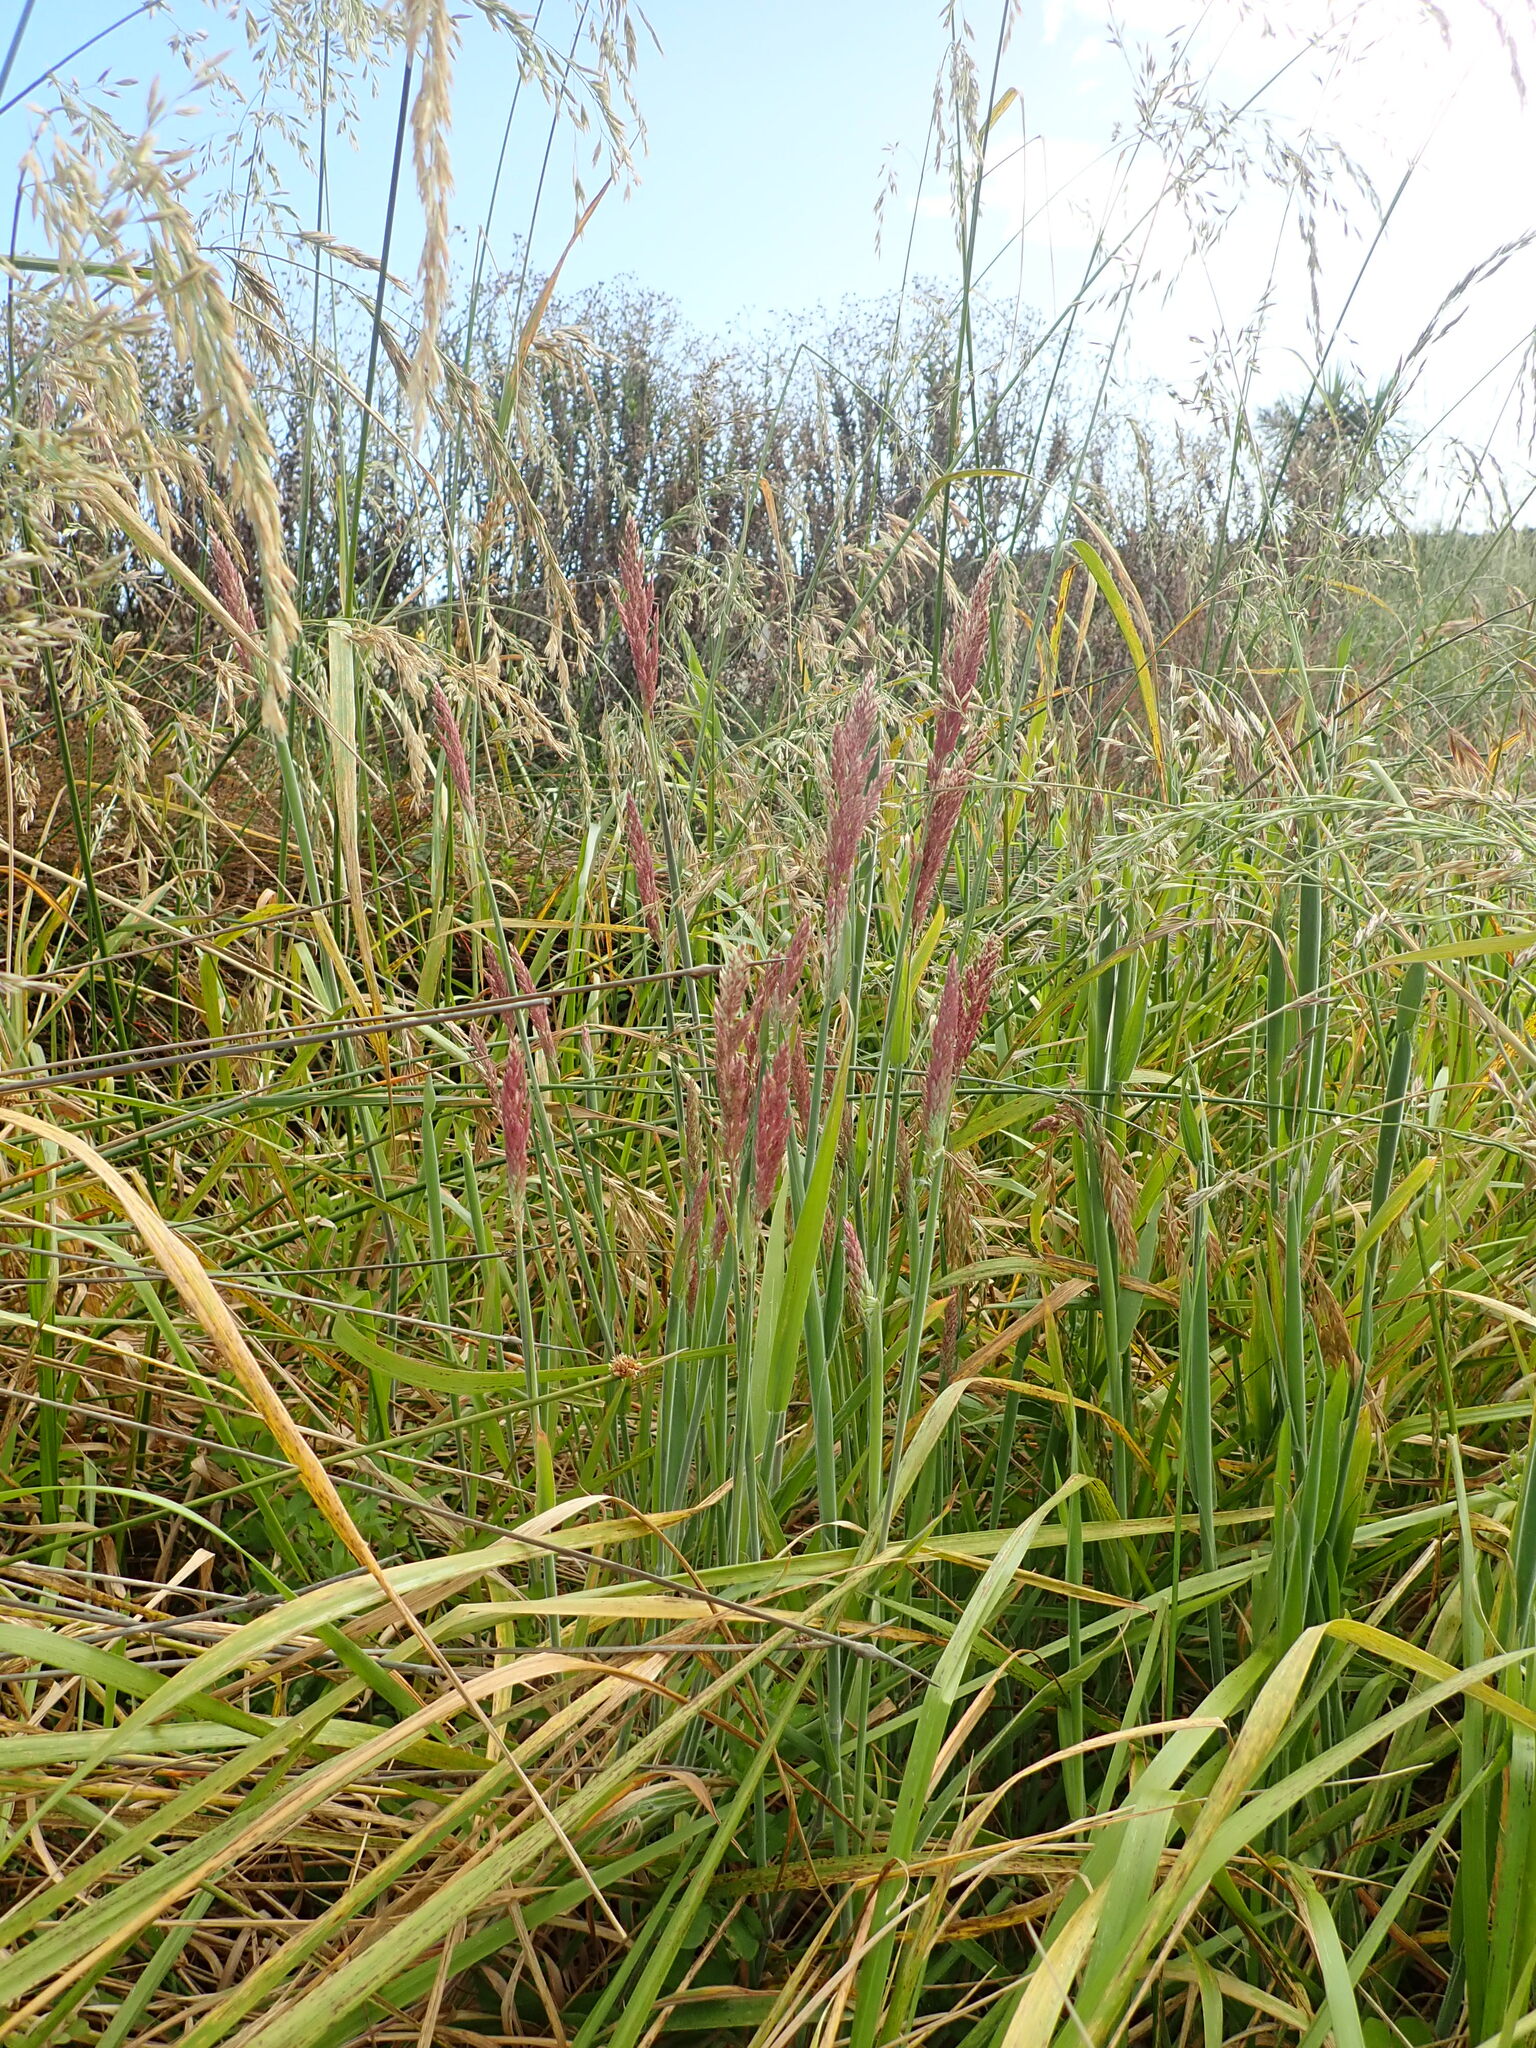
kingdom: Plantae
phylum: Tracheophyta
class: Liliopsida
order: Poales
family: Poaceae
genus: Holcus
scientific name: Holcus lanatus
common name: Yorkshire-fog
